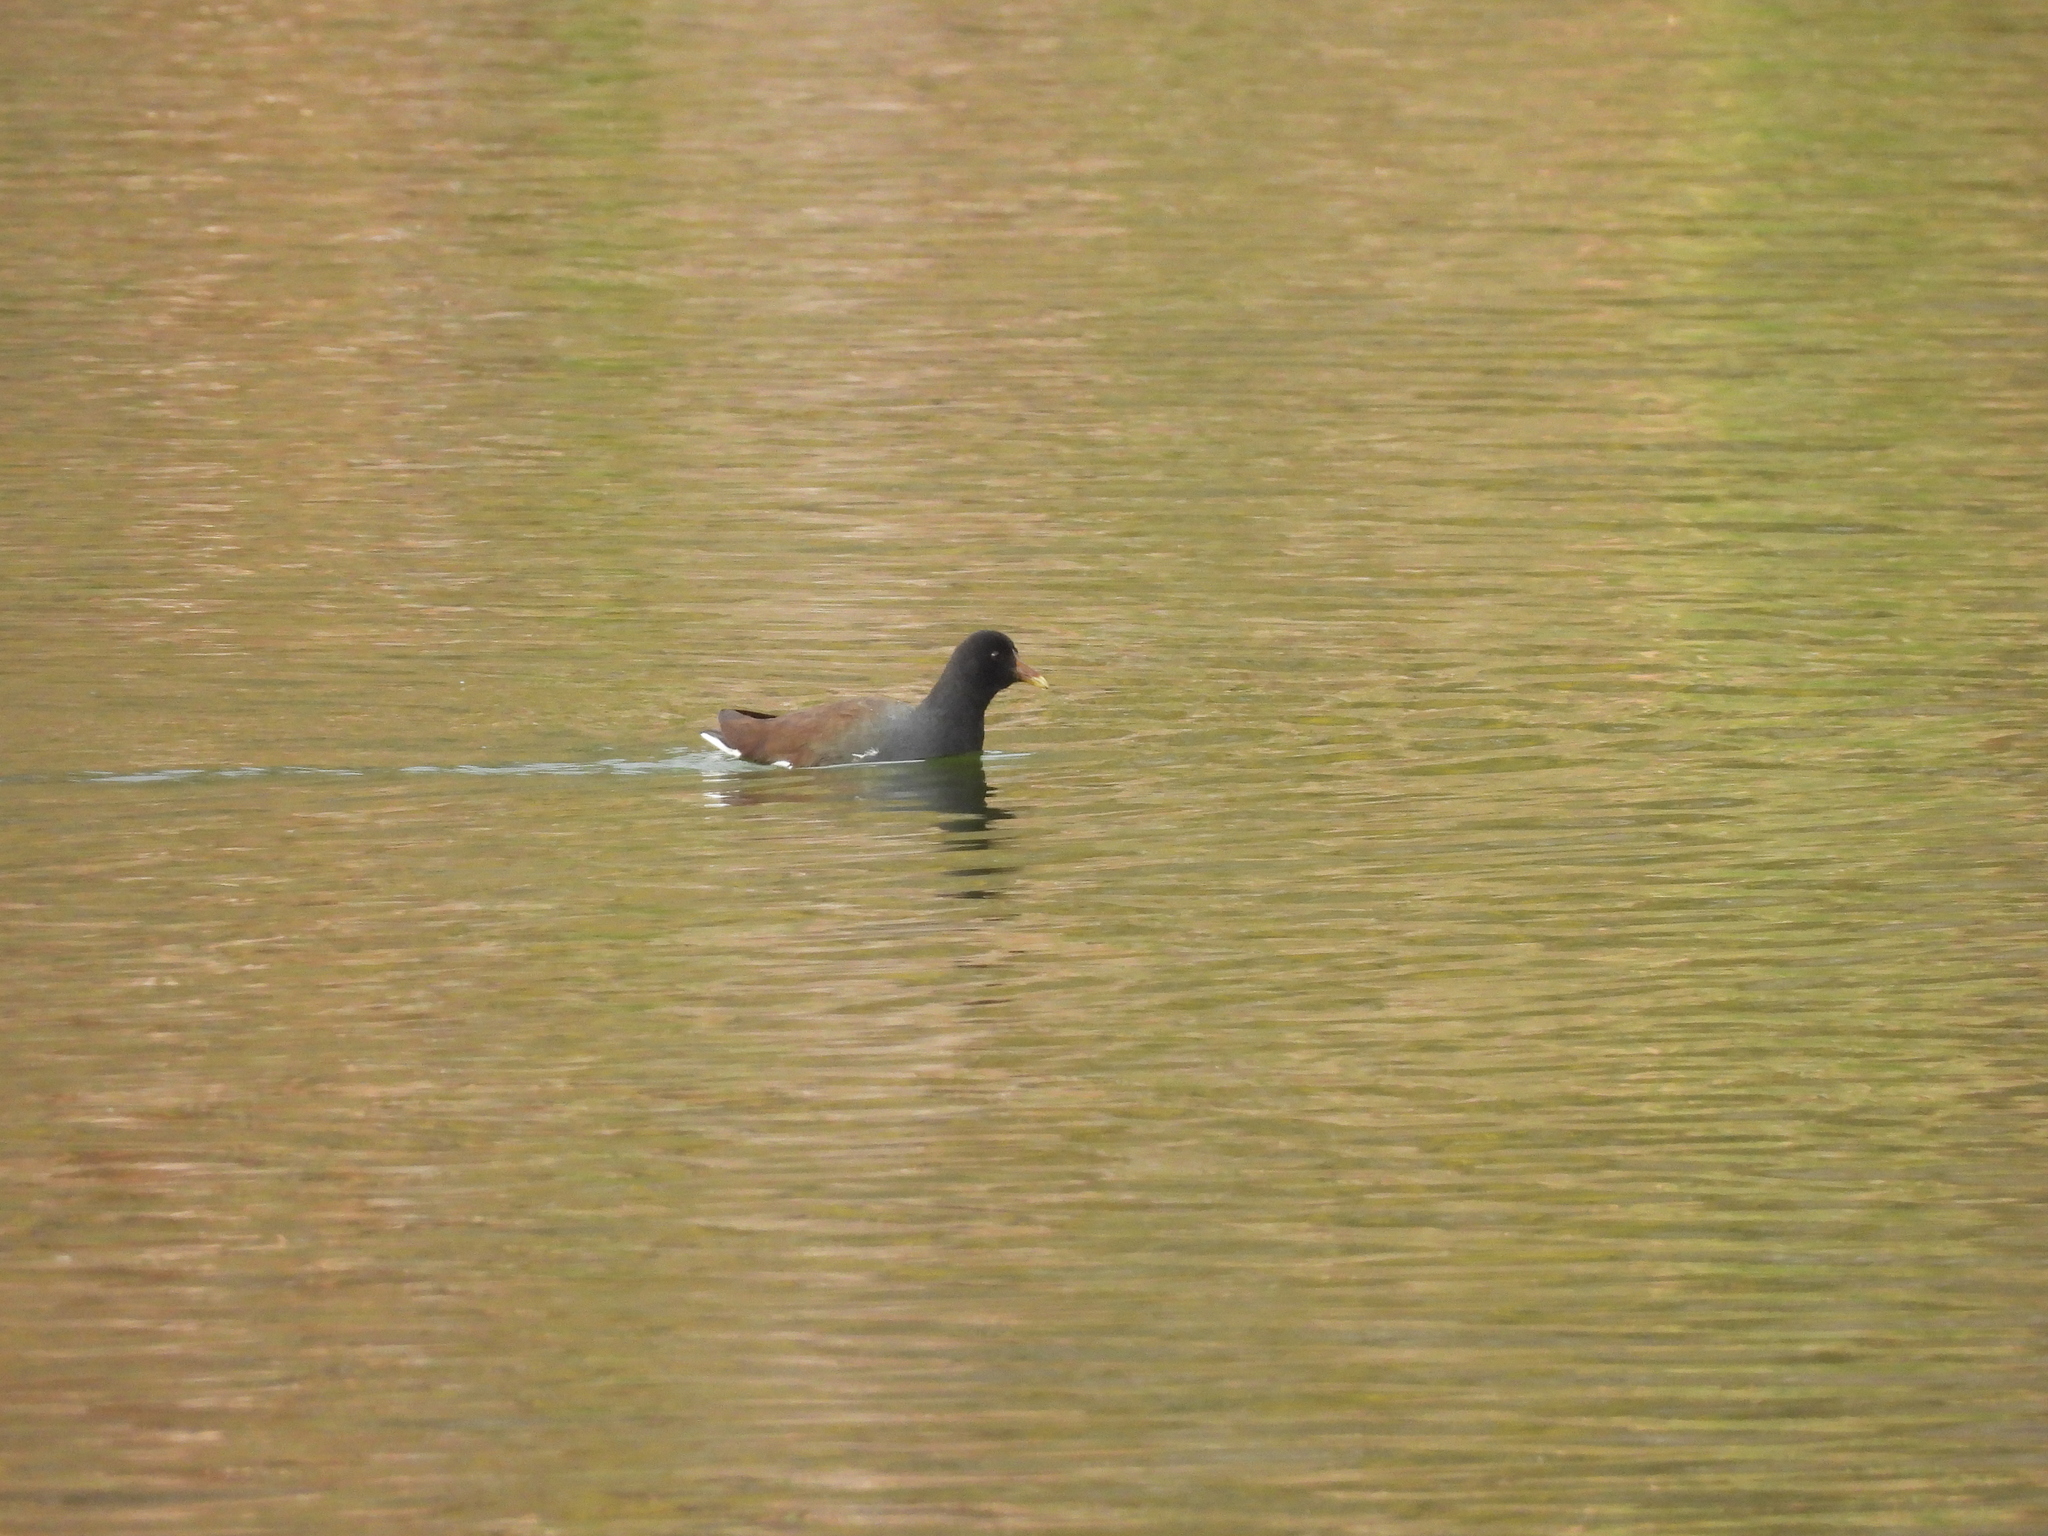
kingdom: Animalia
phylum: Chordata
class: Aves
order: Gruiformes
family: Rallidae
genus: Gallinula
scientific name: Gallinula chloropus
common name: Common moorhen
